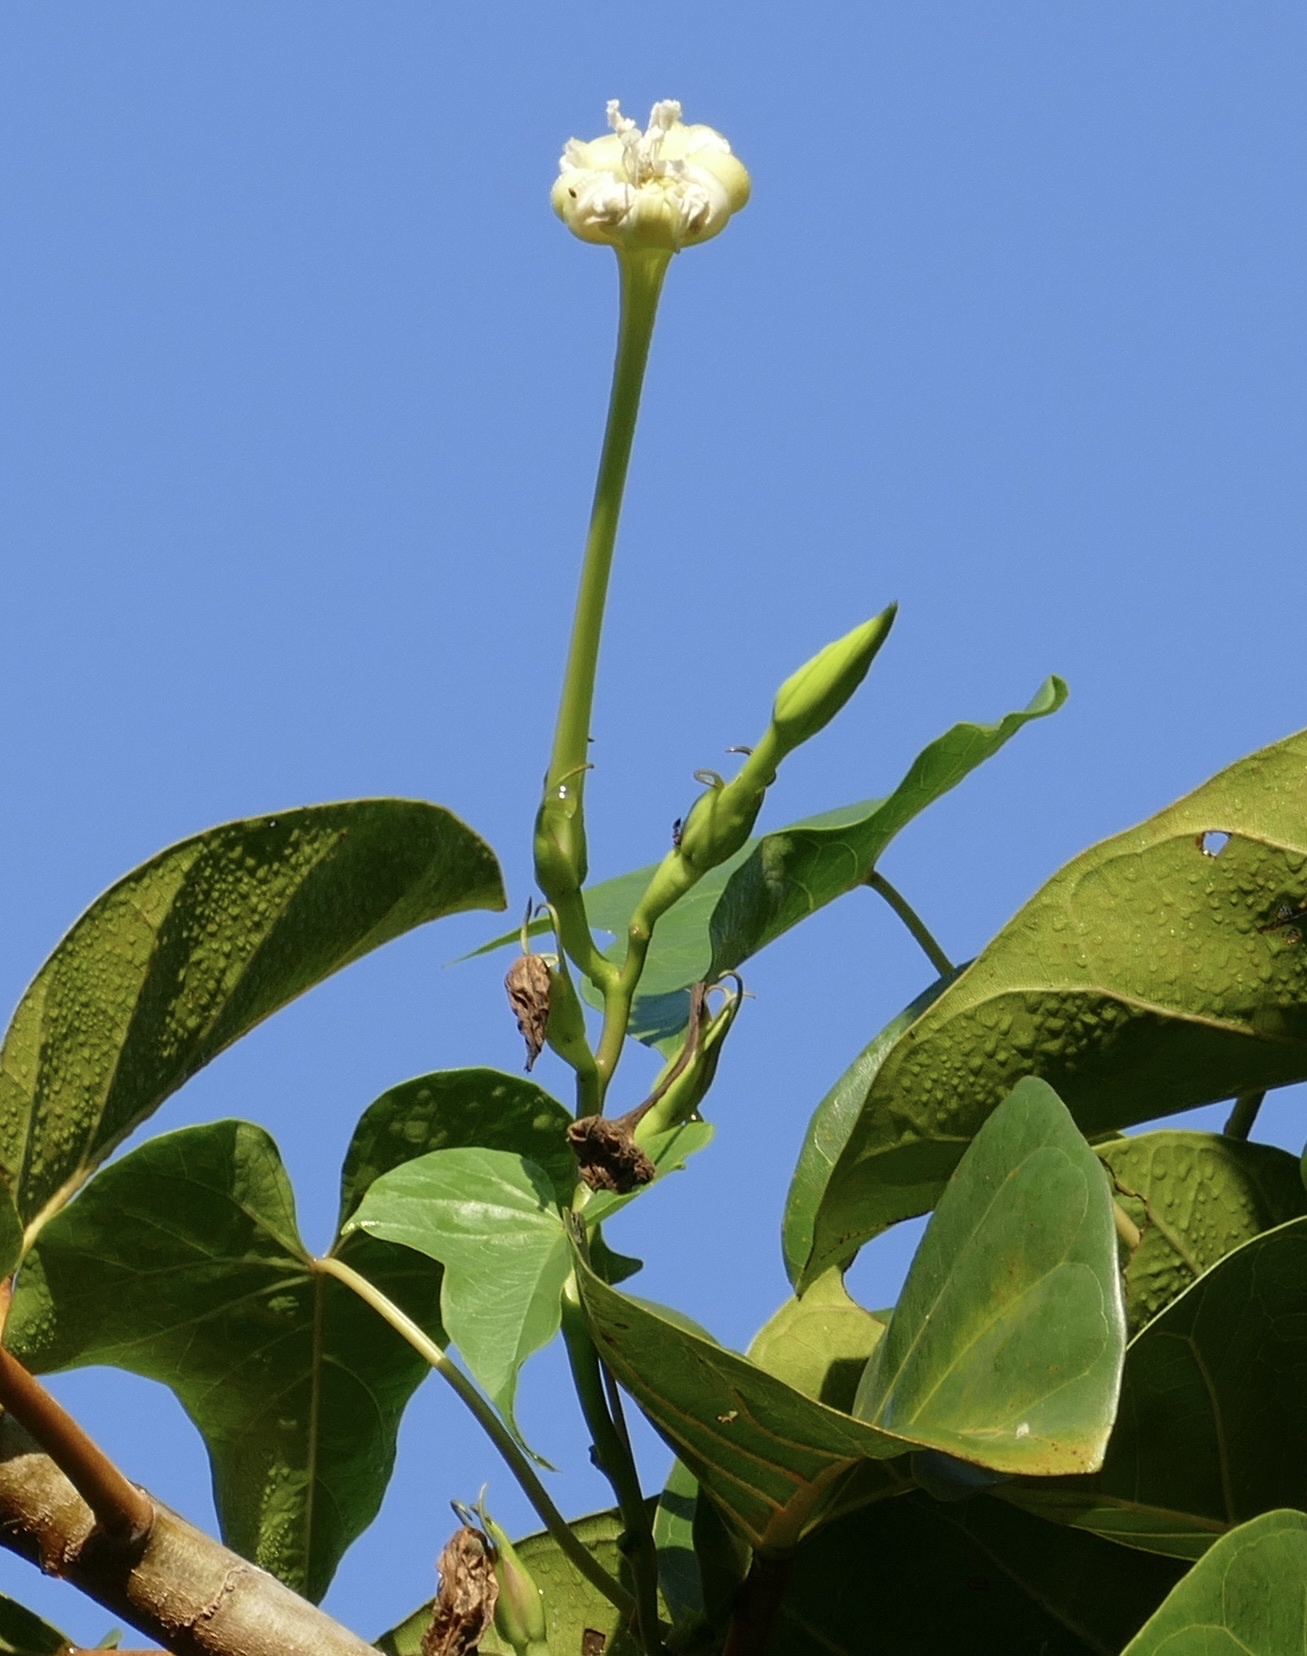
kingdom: Plantae
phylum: Tracheophyta
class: Magnoliopsida
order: Solanales
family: Convolvulaceae
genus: Ipomoea
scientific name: Ipomoea alba
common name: Moonflower
